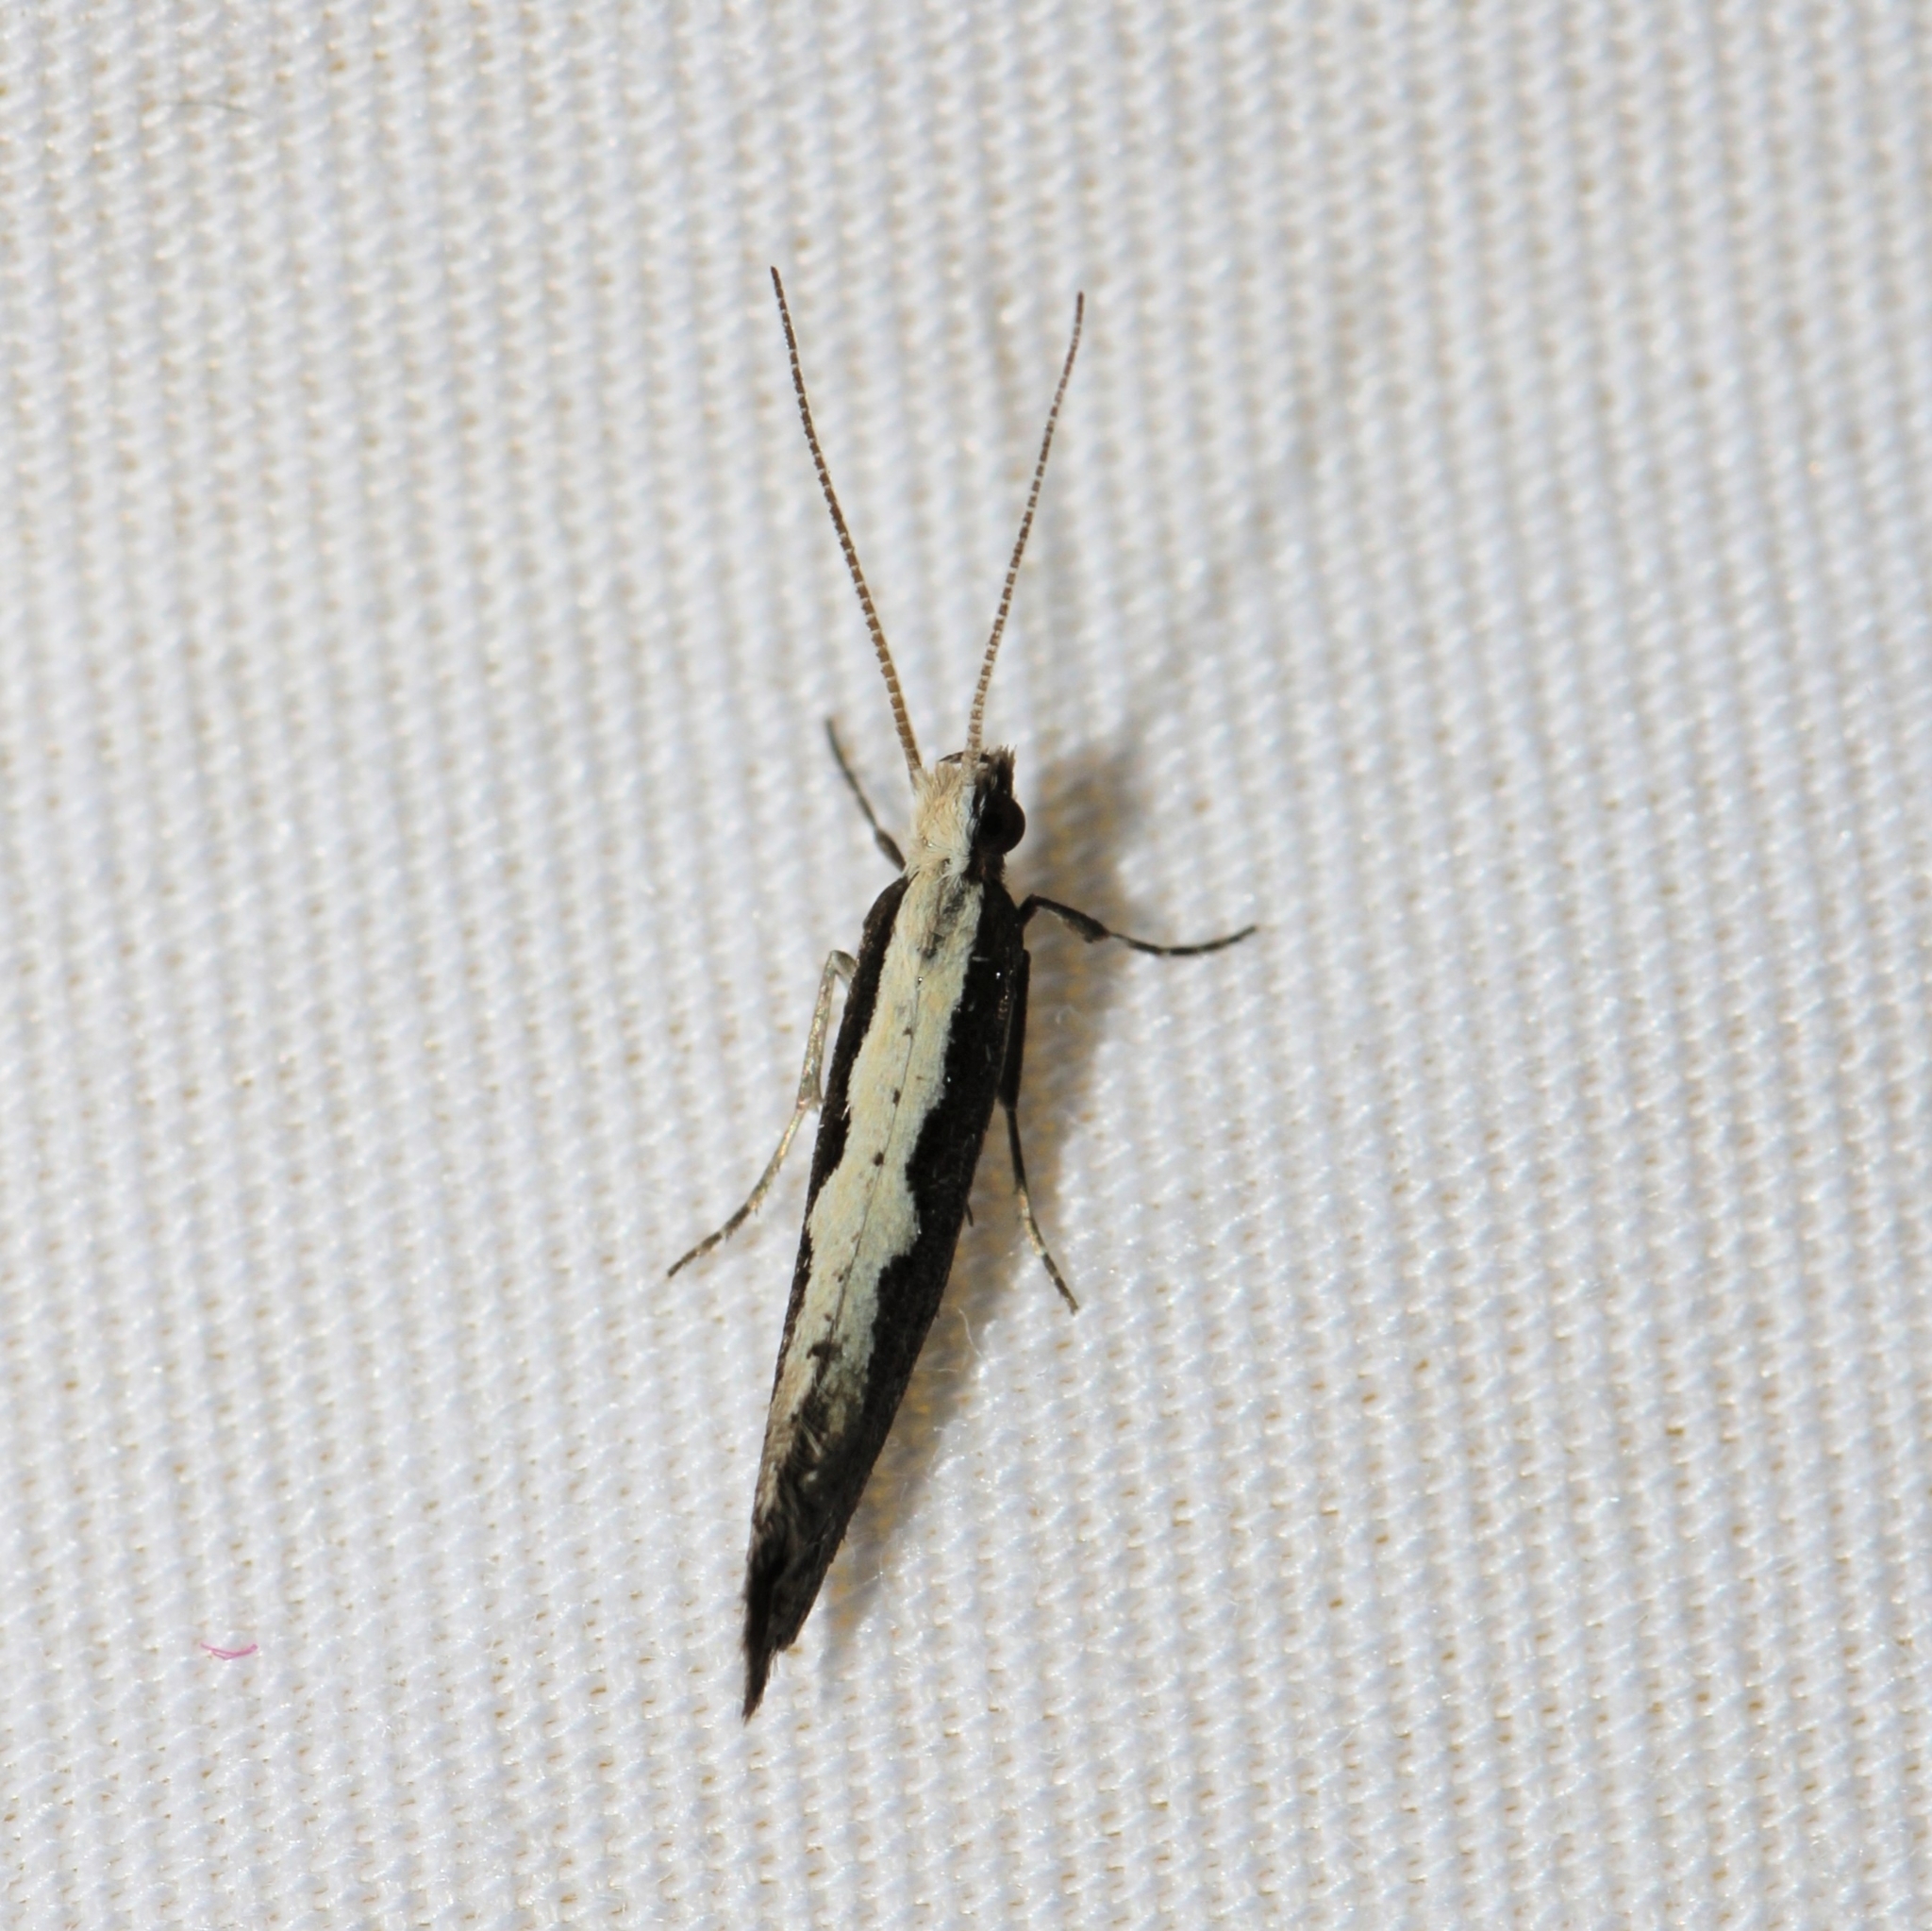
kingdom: Animalia
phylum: Arthropoda
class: Insecta
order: Lepidoptera
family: Plutellidae
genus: Plutella
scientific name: Plutella xylostella
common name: Diamond-back moth
